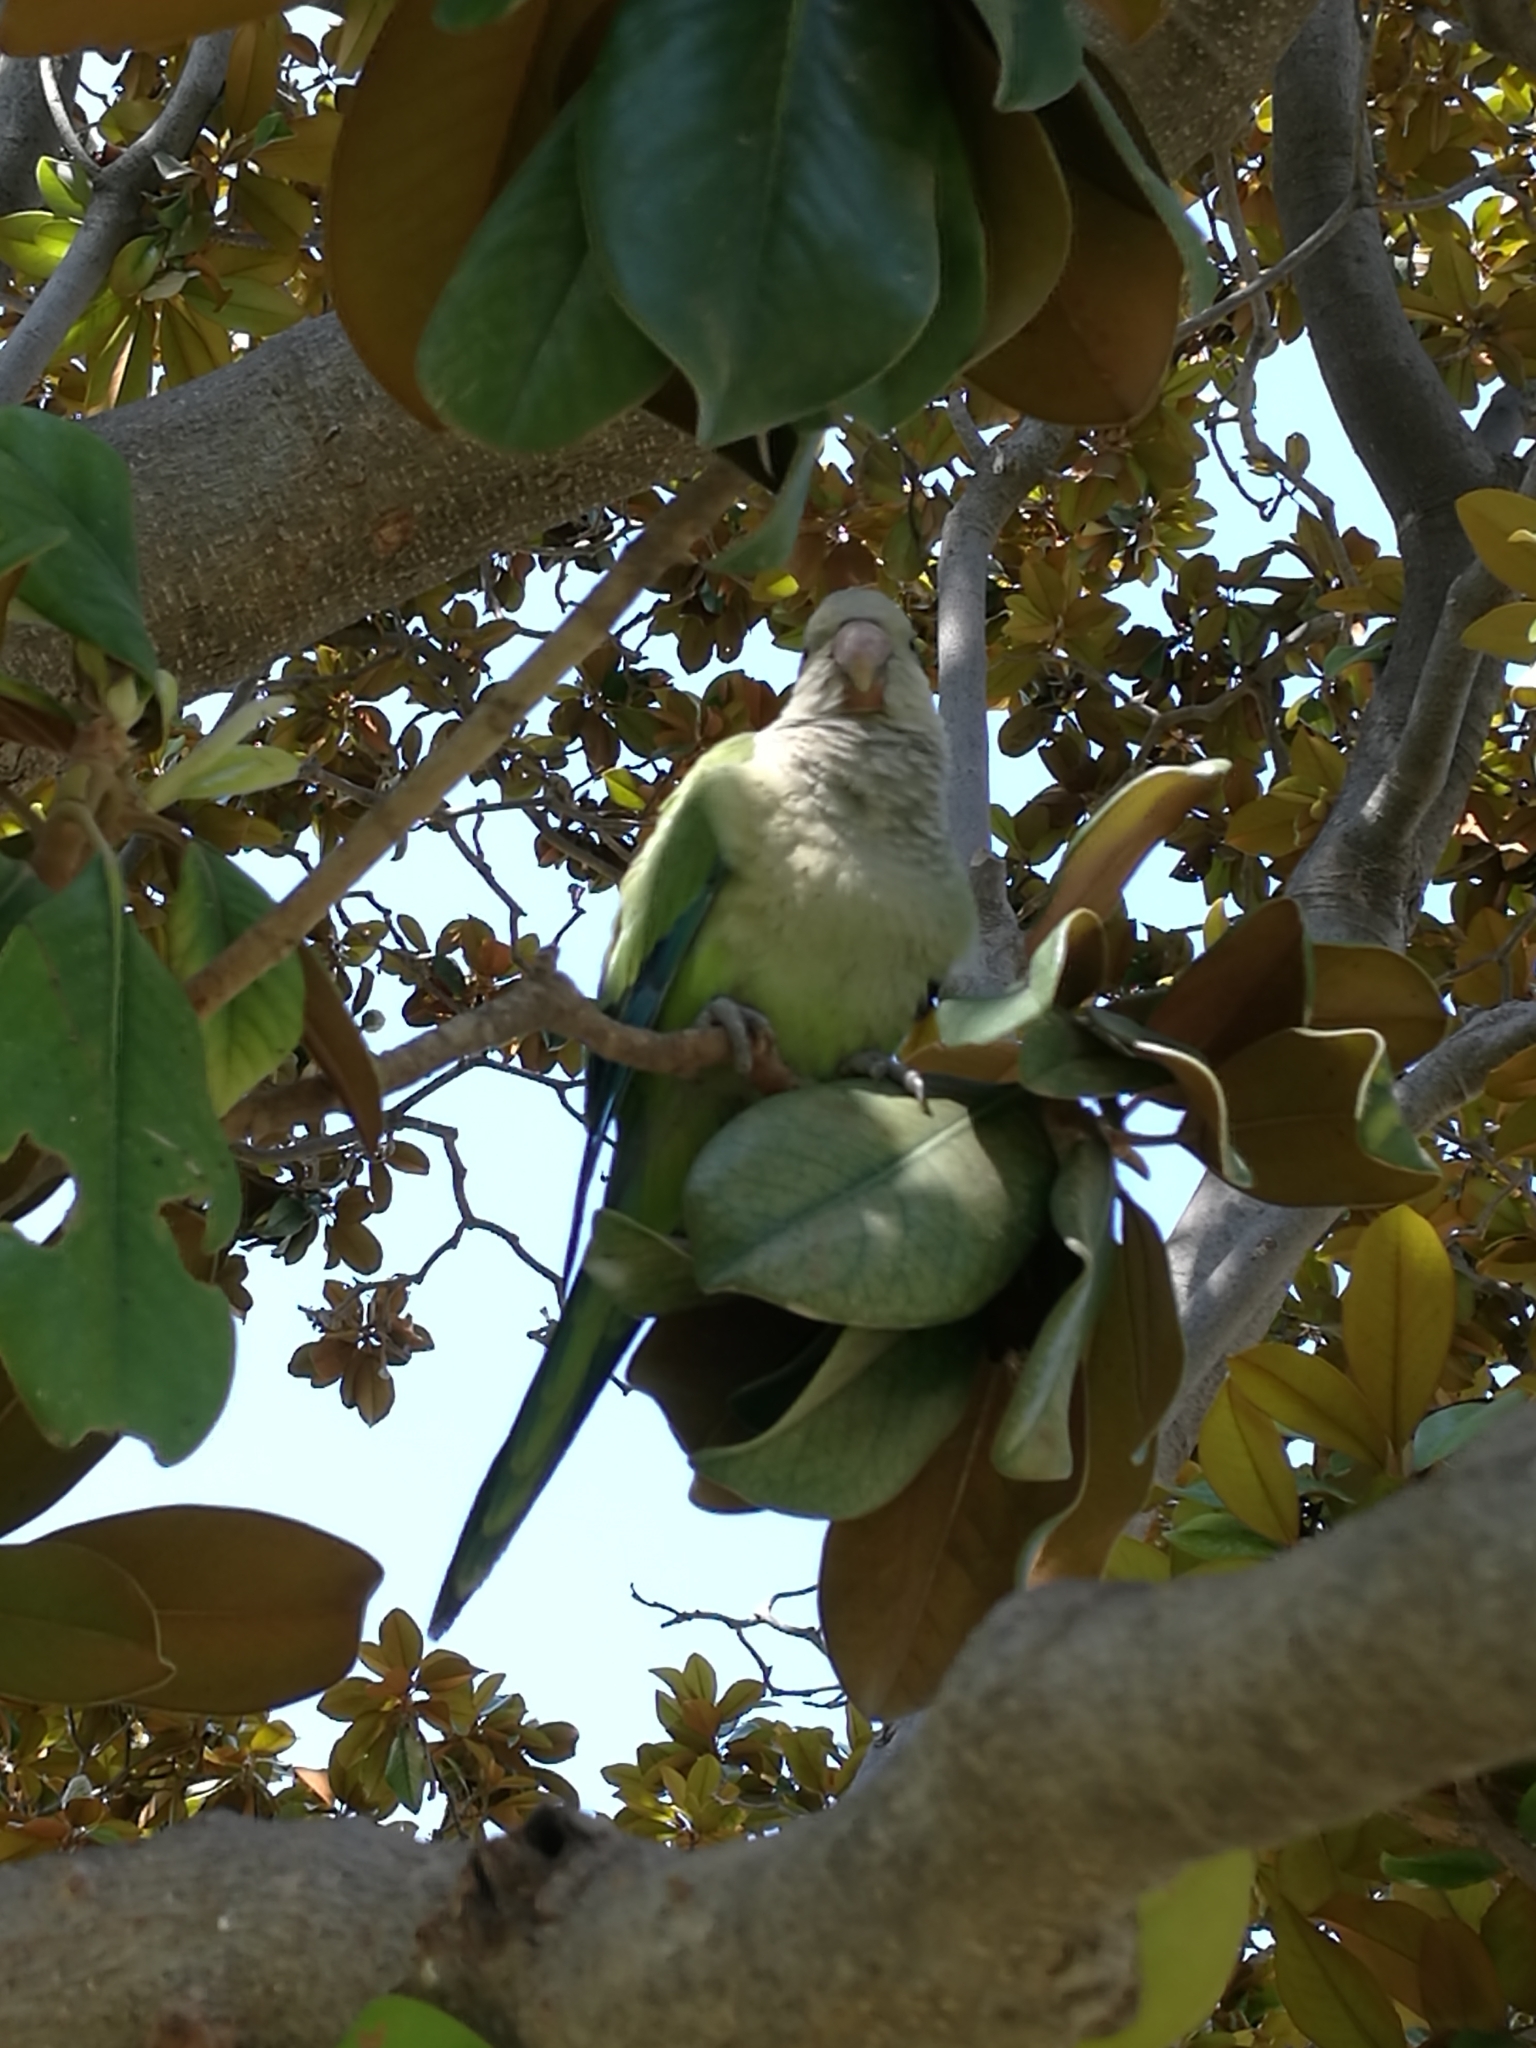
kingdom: Animalia
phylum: Chordata
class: Aves
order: Psittaciformes
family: Psittacidae
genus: Myiopsitta
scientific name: Myiopsitta monachus
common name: Monk parakeet
